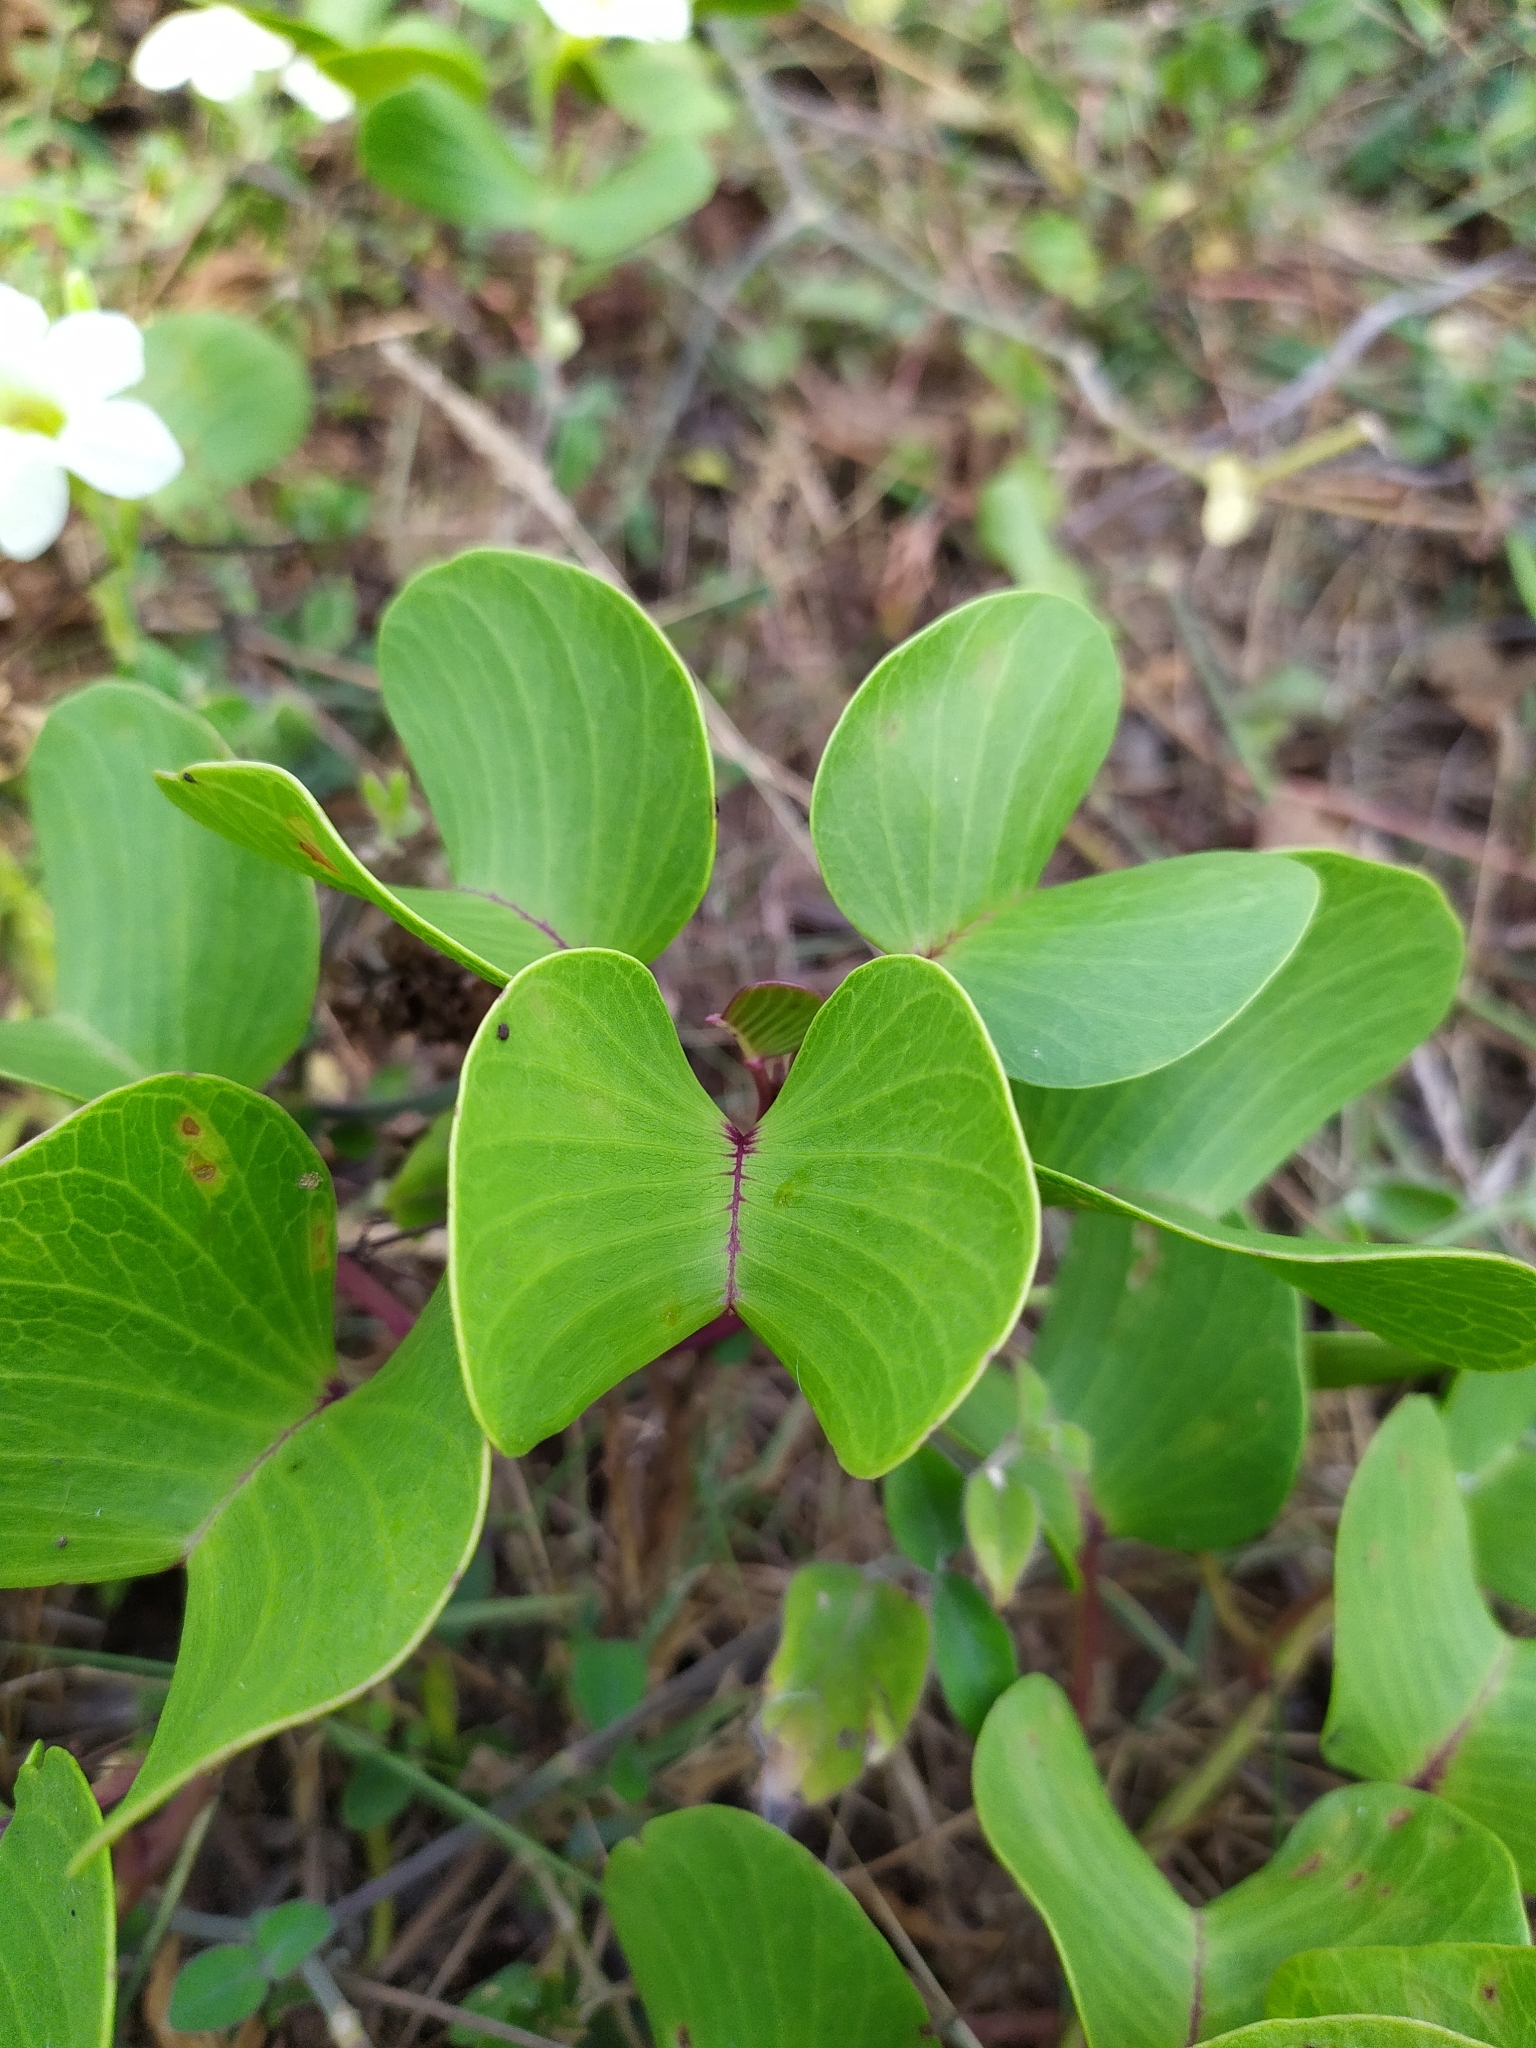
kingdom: Plantae
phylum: Tracheophyta
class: Magnoliopsida
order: Solanales
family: Convolvulaceae
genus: Ipomoea
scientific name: Ipomoea pes-caprae
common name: Beach morning glory
